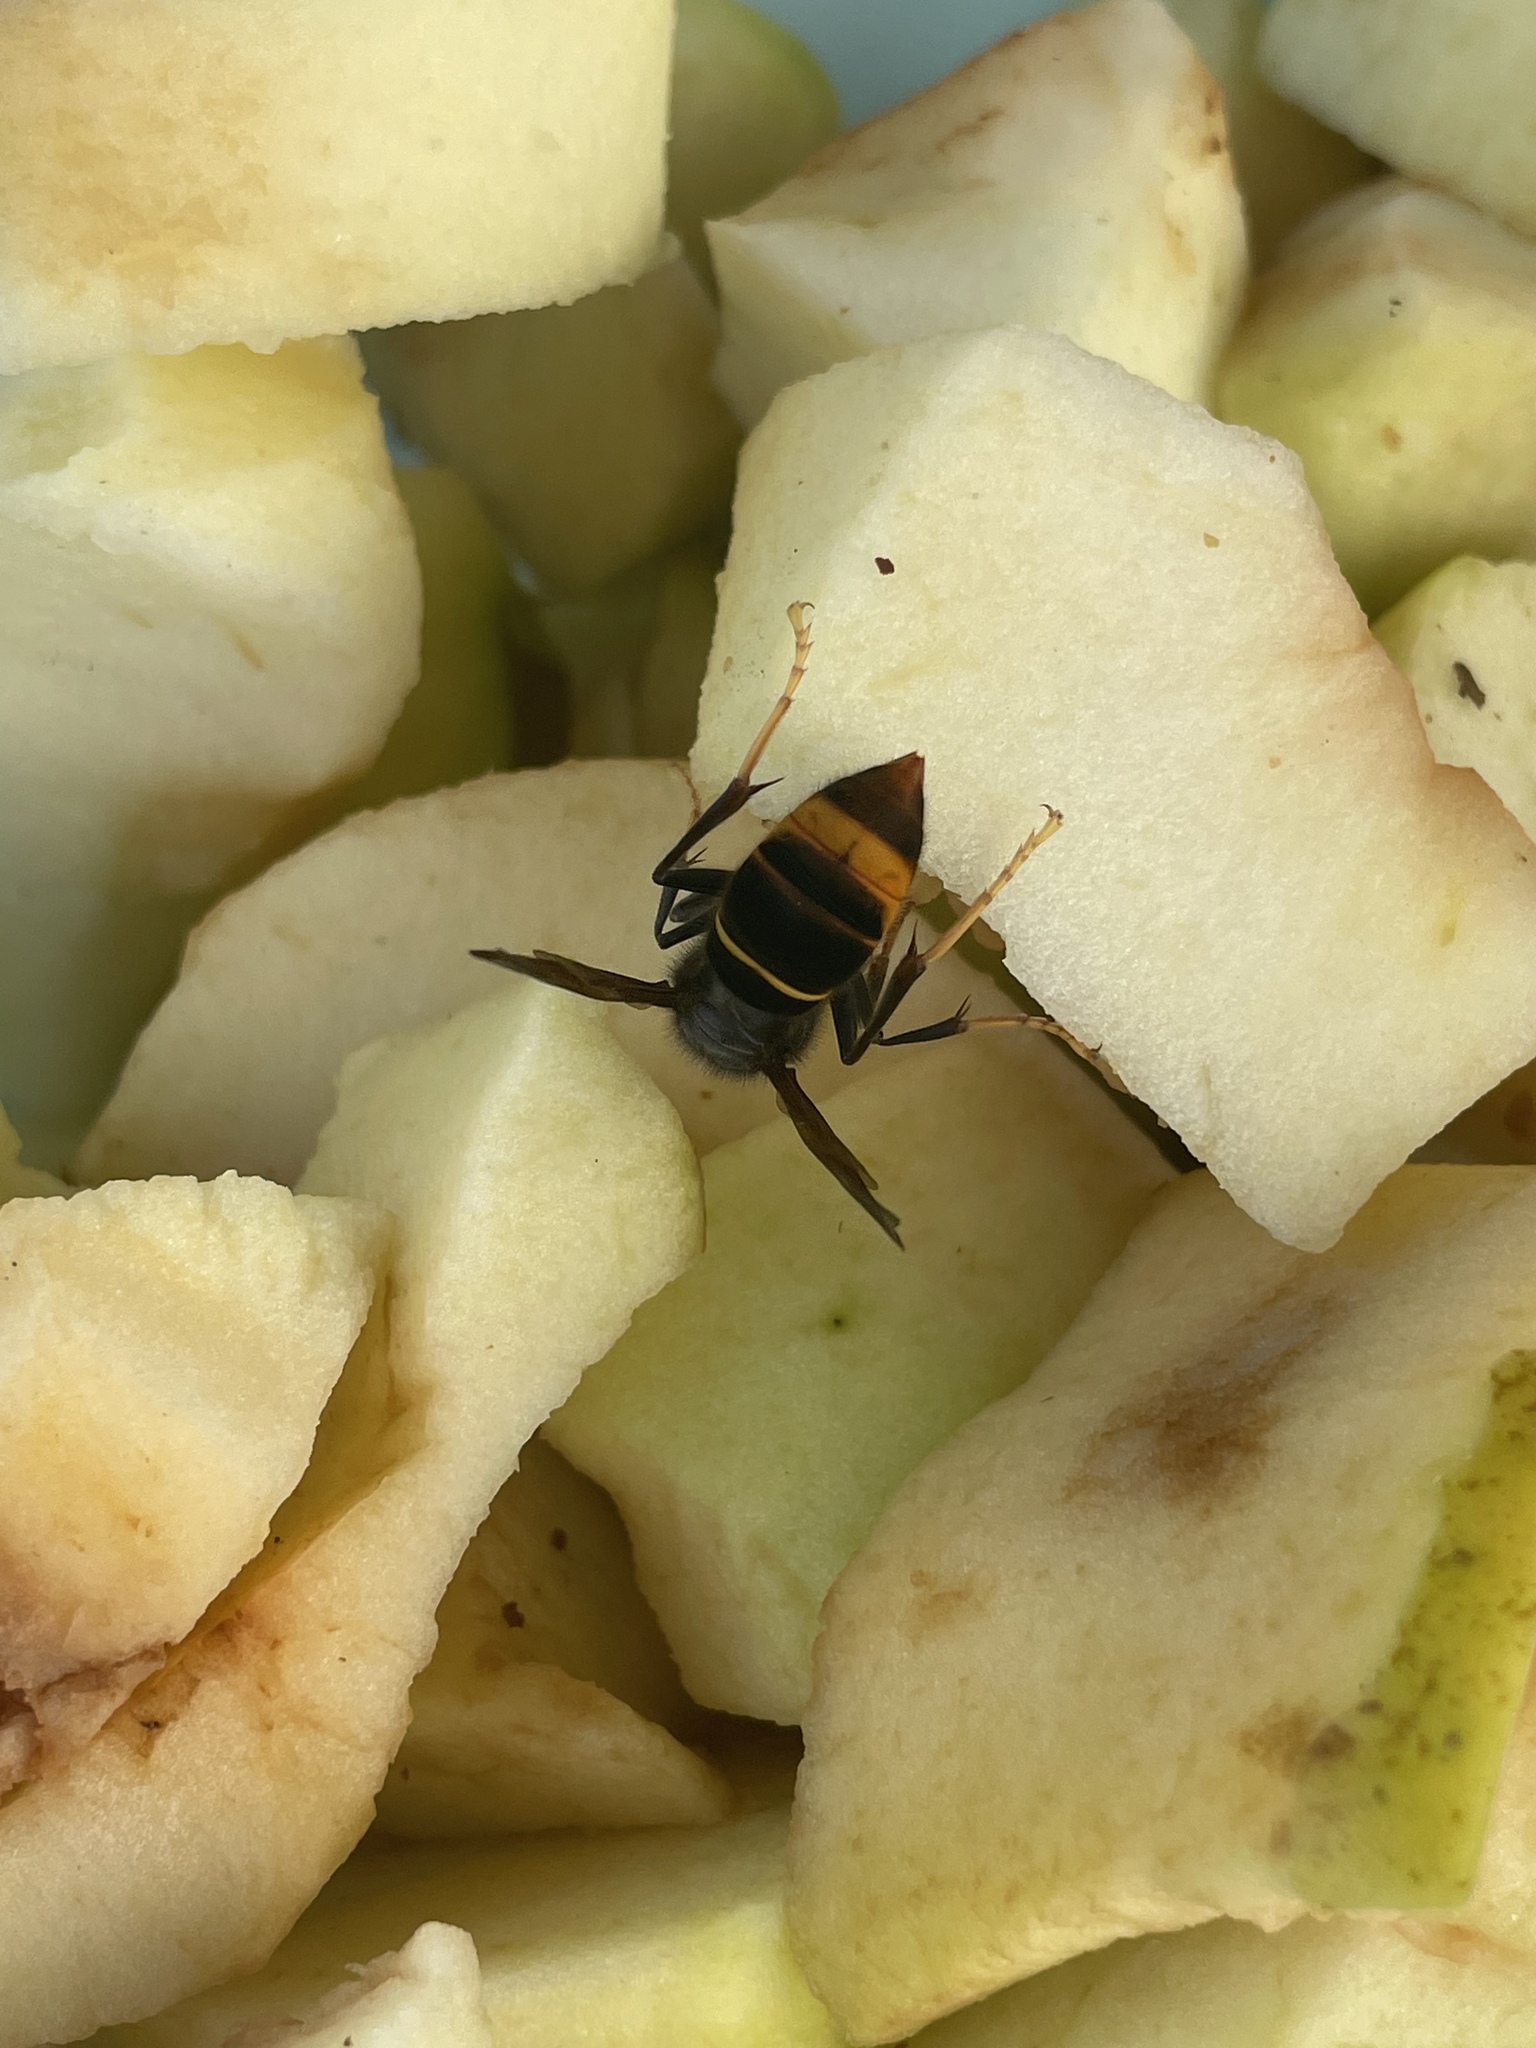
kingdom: Animalia
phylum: Arthropoda
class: Insecta
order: Hymenoptera
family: Vespidae
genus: Vespa
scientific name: Vespa velutina
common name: Asian hornet
